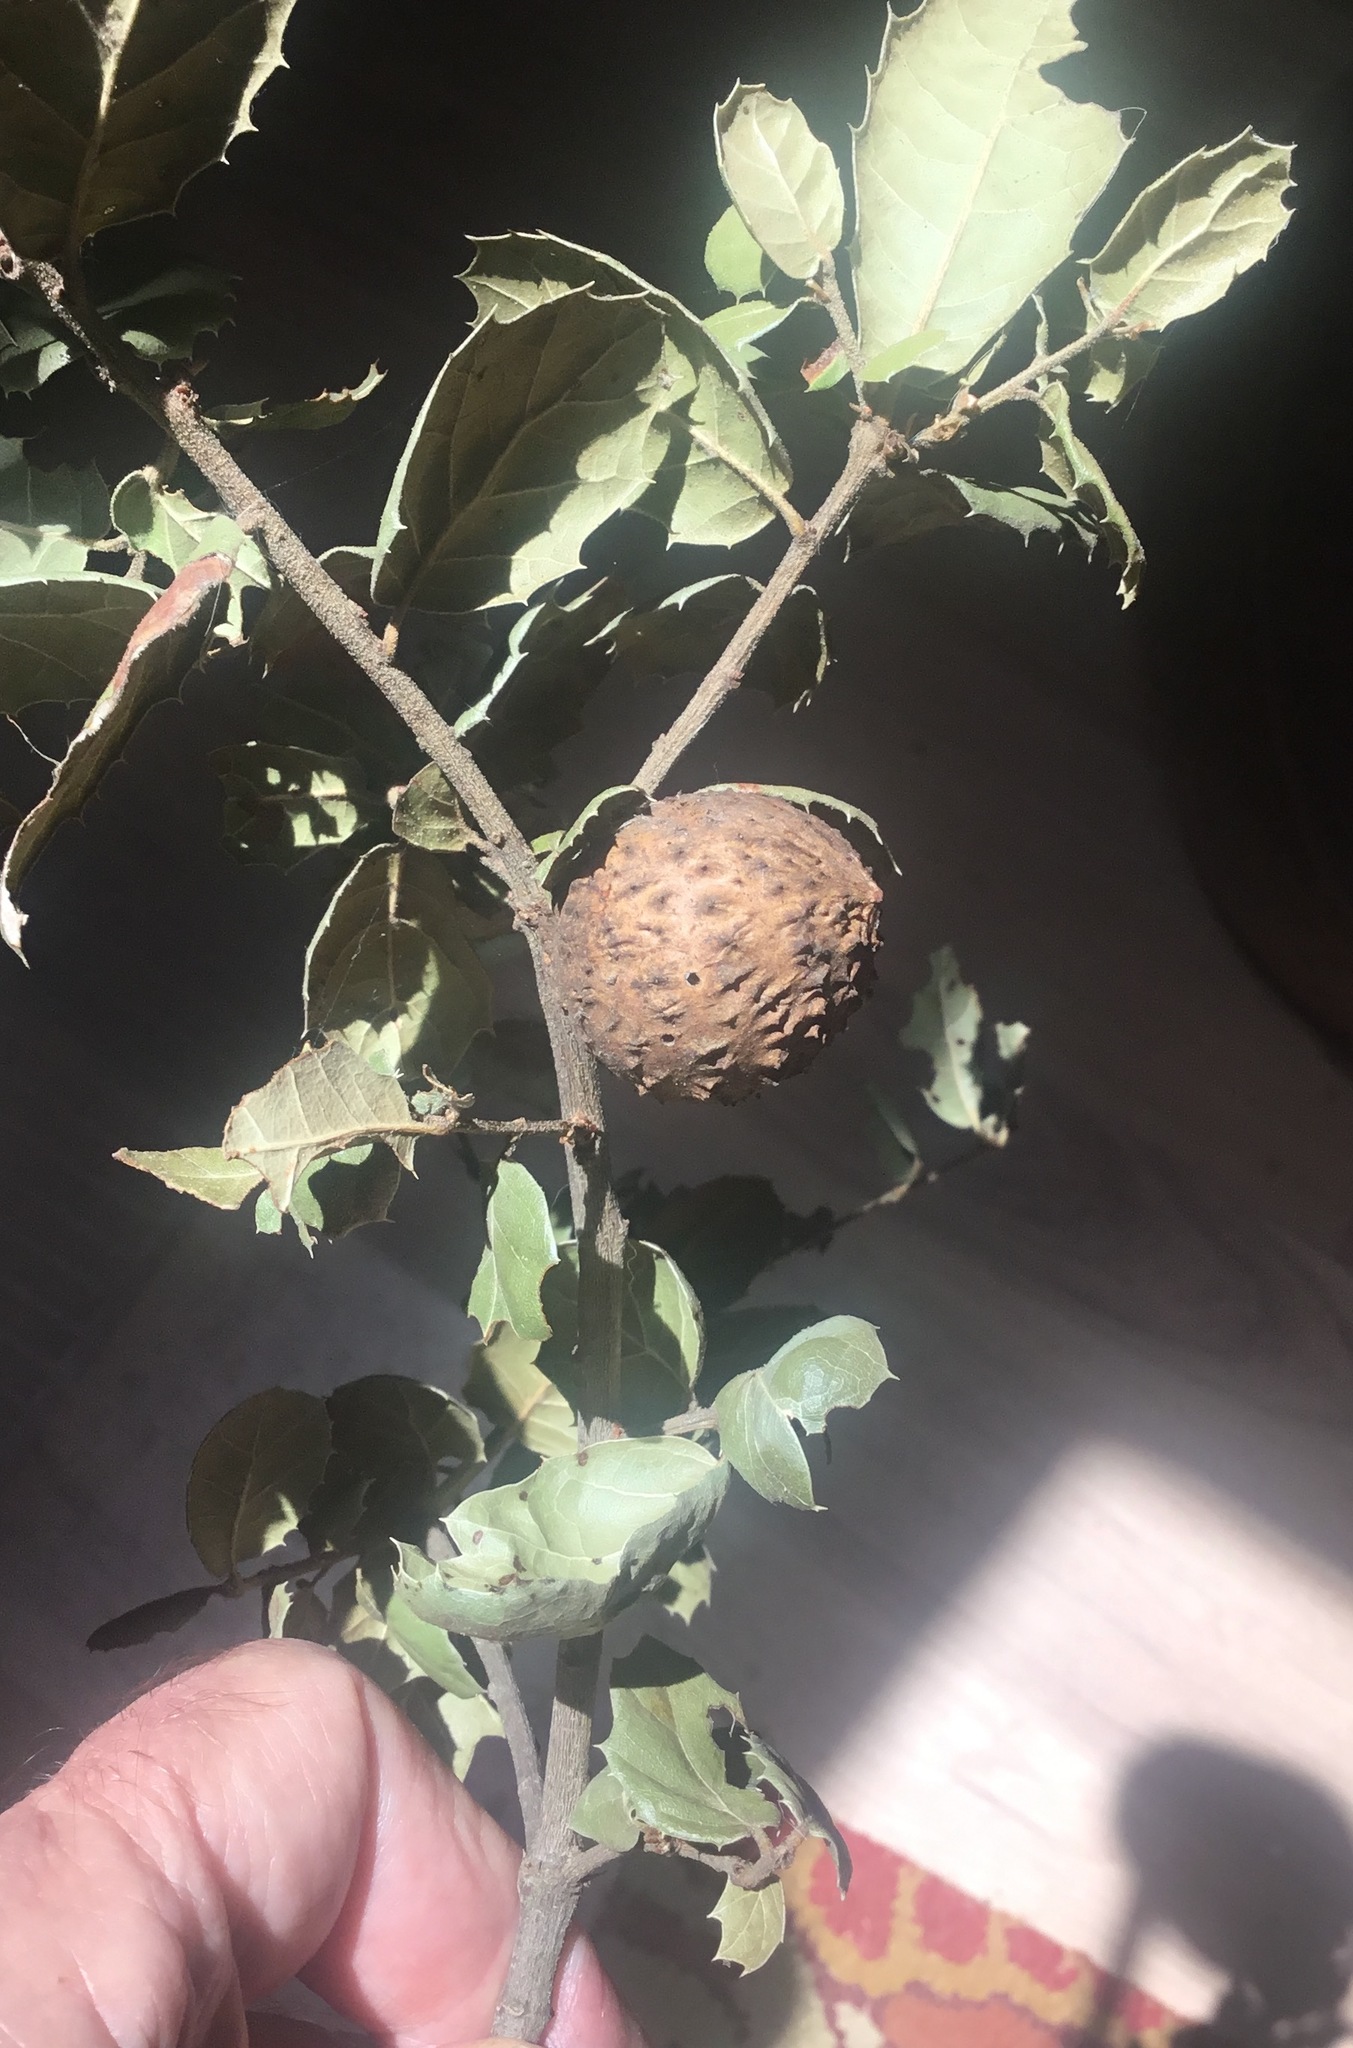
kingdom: Animalia
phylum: Arthropoda
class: Insecta
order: Hymenoptera
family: Cynipidae
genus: Amphibolips
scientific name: Amphibolips quercuspomiformis
